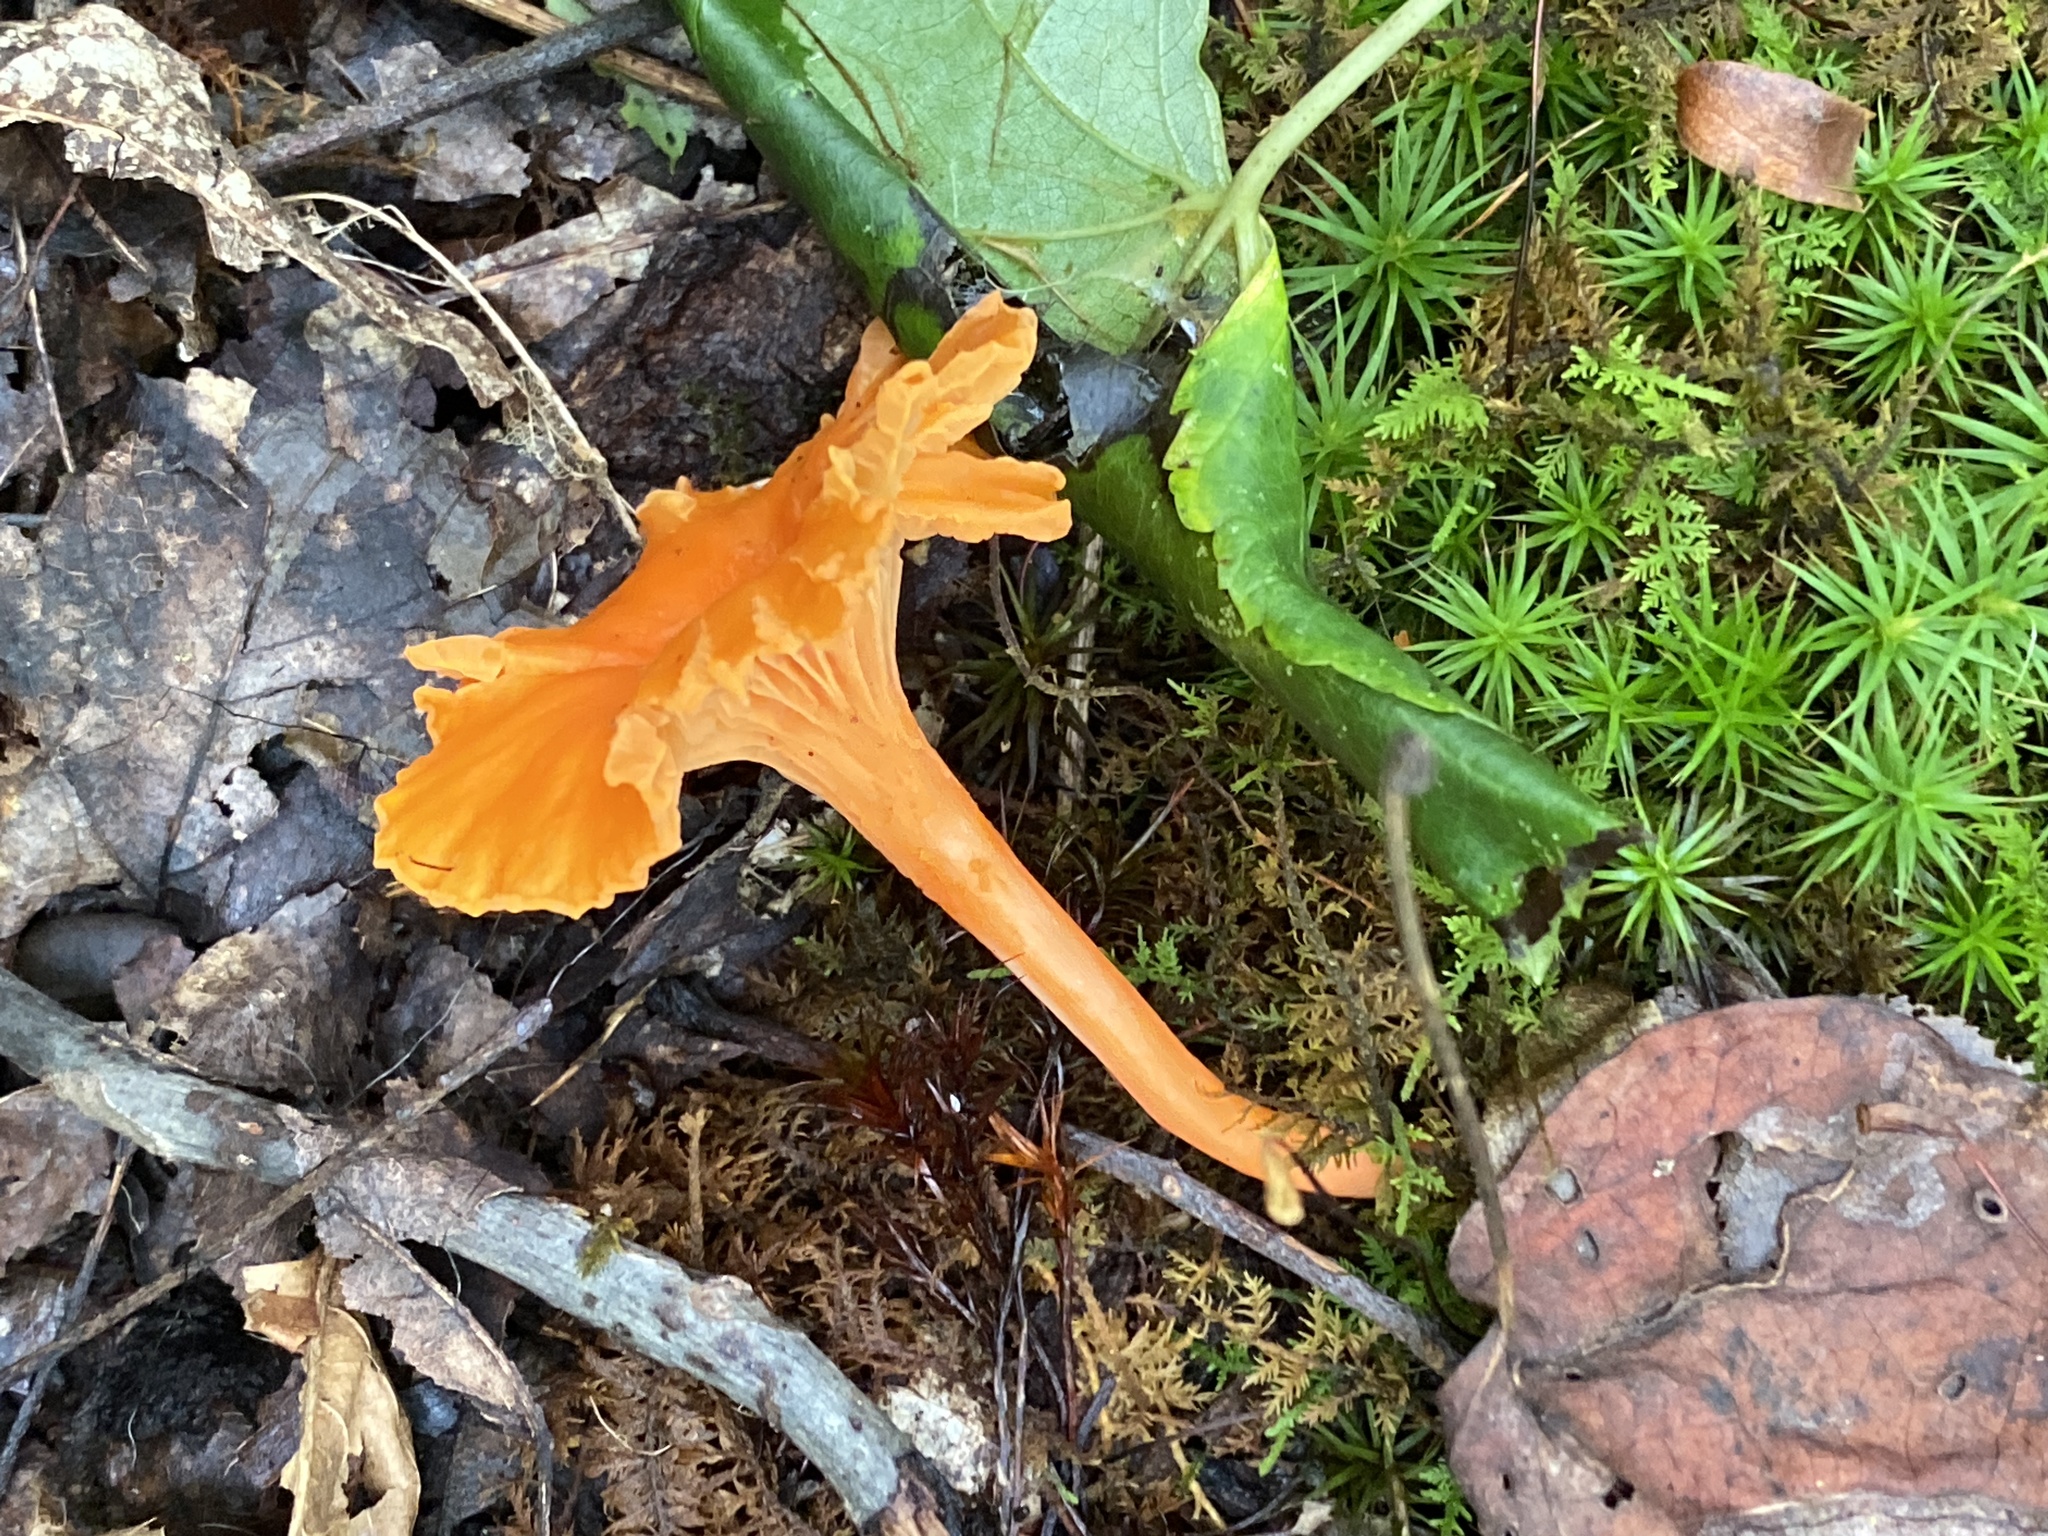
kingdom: Fungi
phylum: Basidiomycota
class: Agaricomycetes
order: Cantharellales
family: Hydnaceae
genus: Cantharellus
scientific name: Cantharellus cinnabarinus
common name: Cinnabar chanterelle
